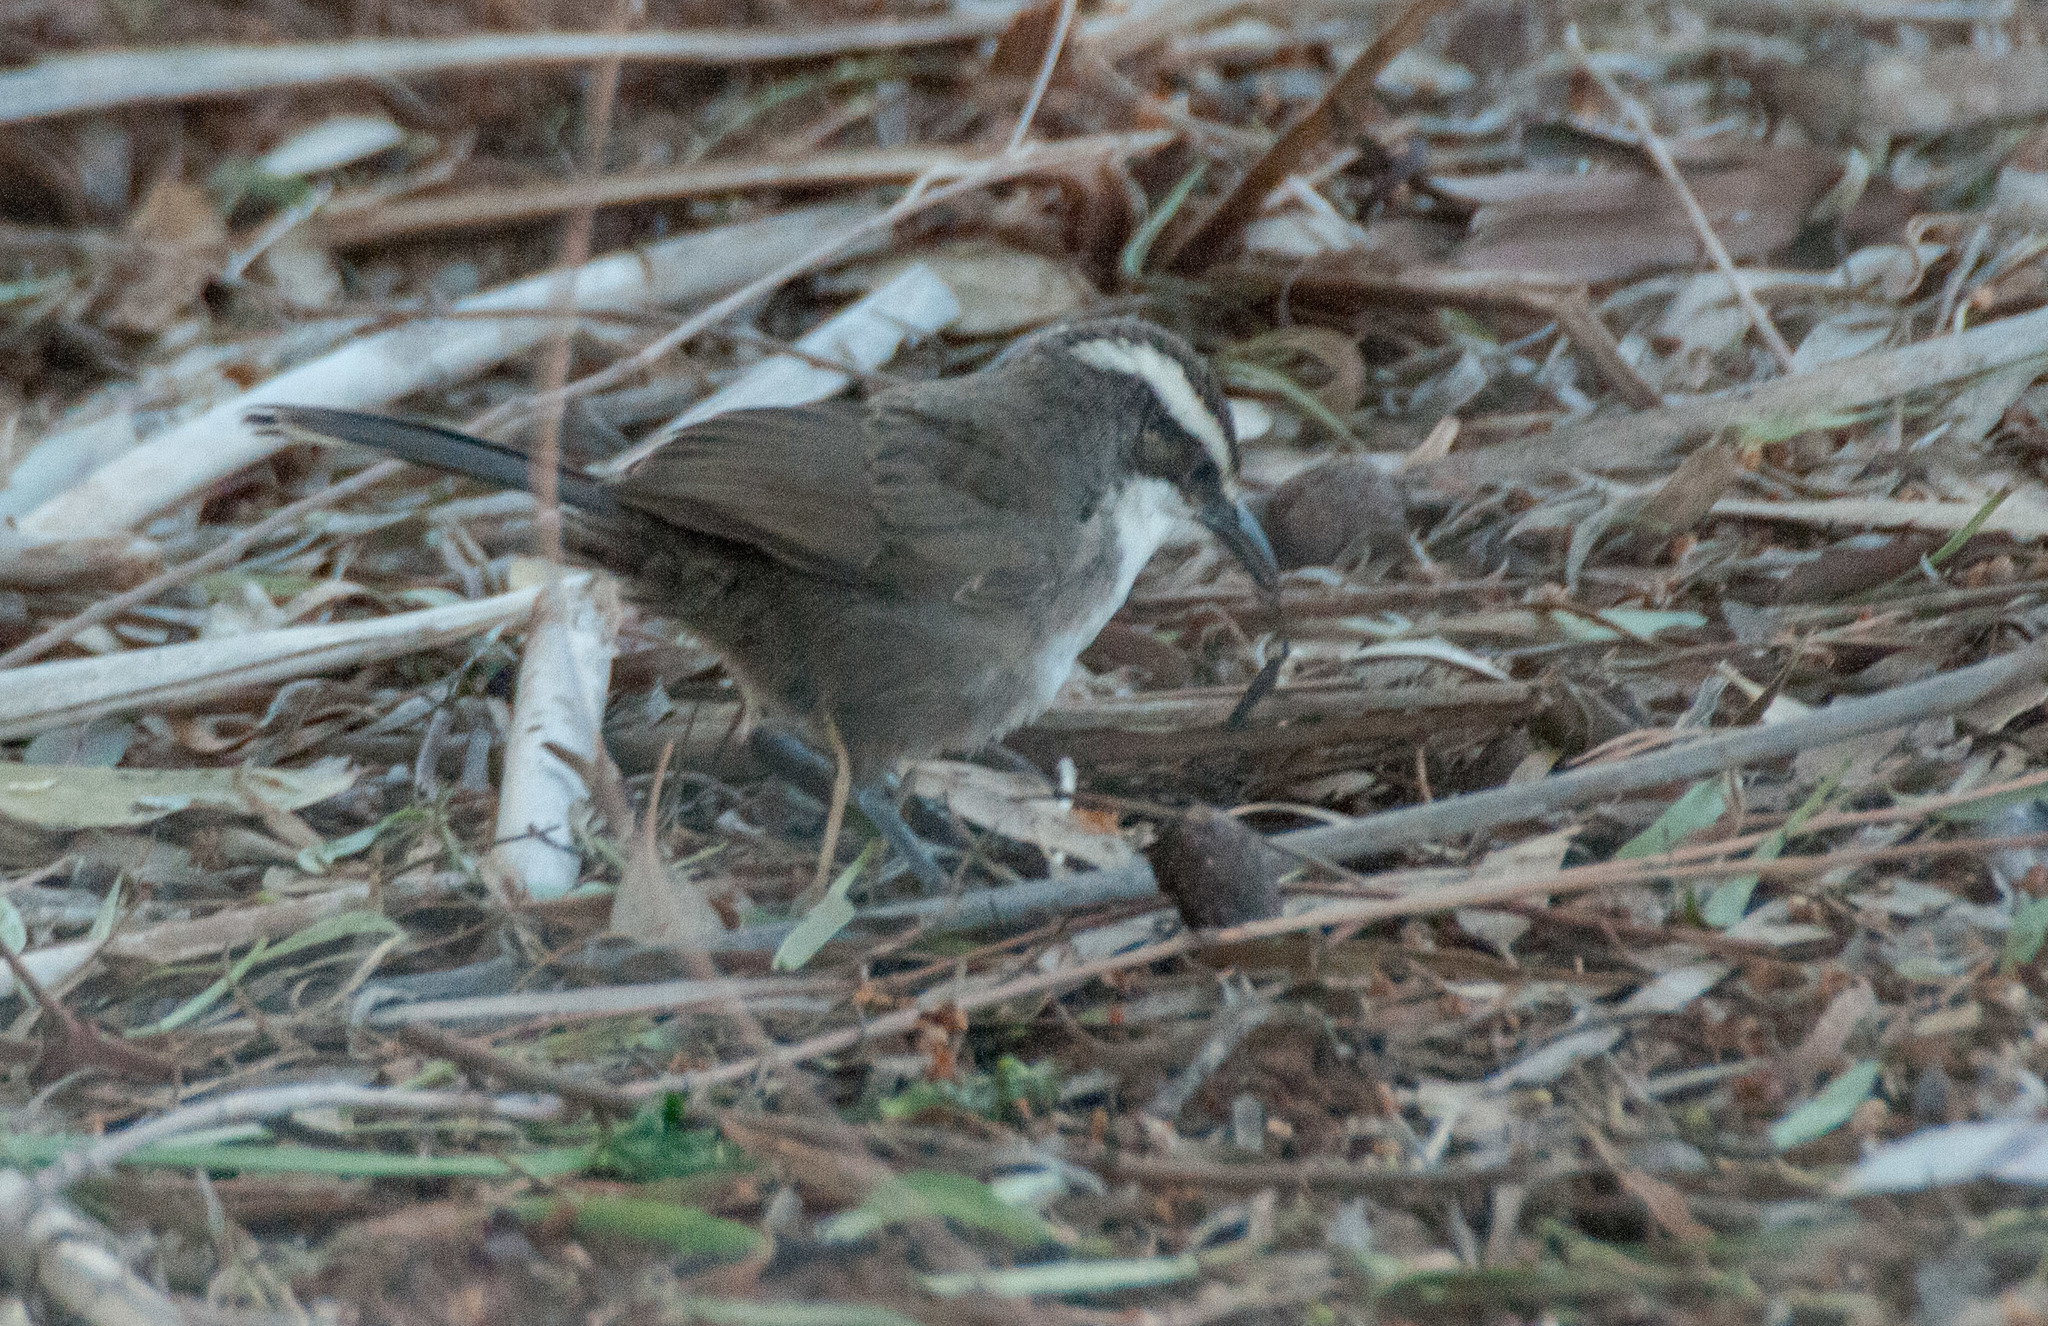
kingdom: Animalia
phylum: Chordata
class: Aves
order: Passeriformes
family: Pomatostomidae
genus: Pomatostomus
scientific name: Pomatostomus superciliosus
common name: White-browed babbler
